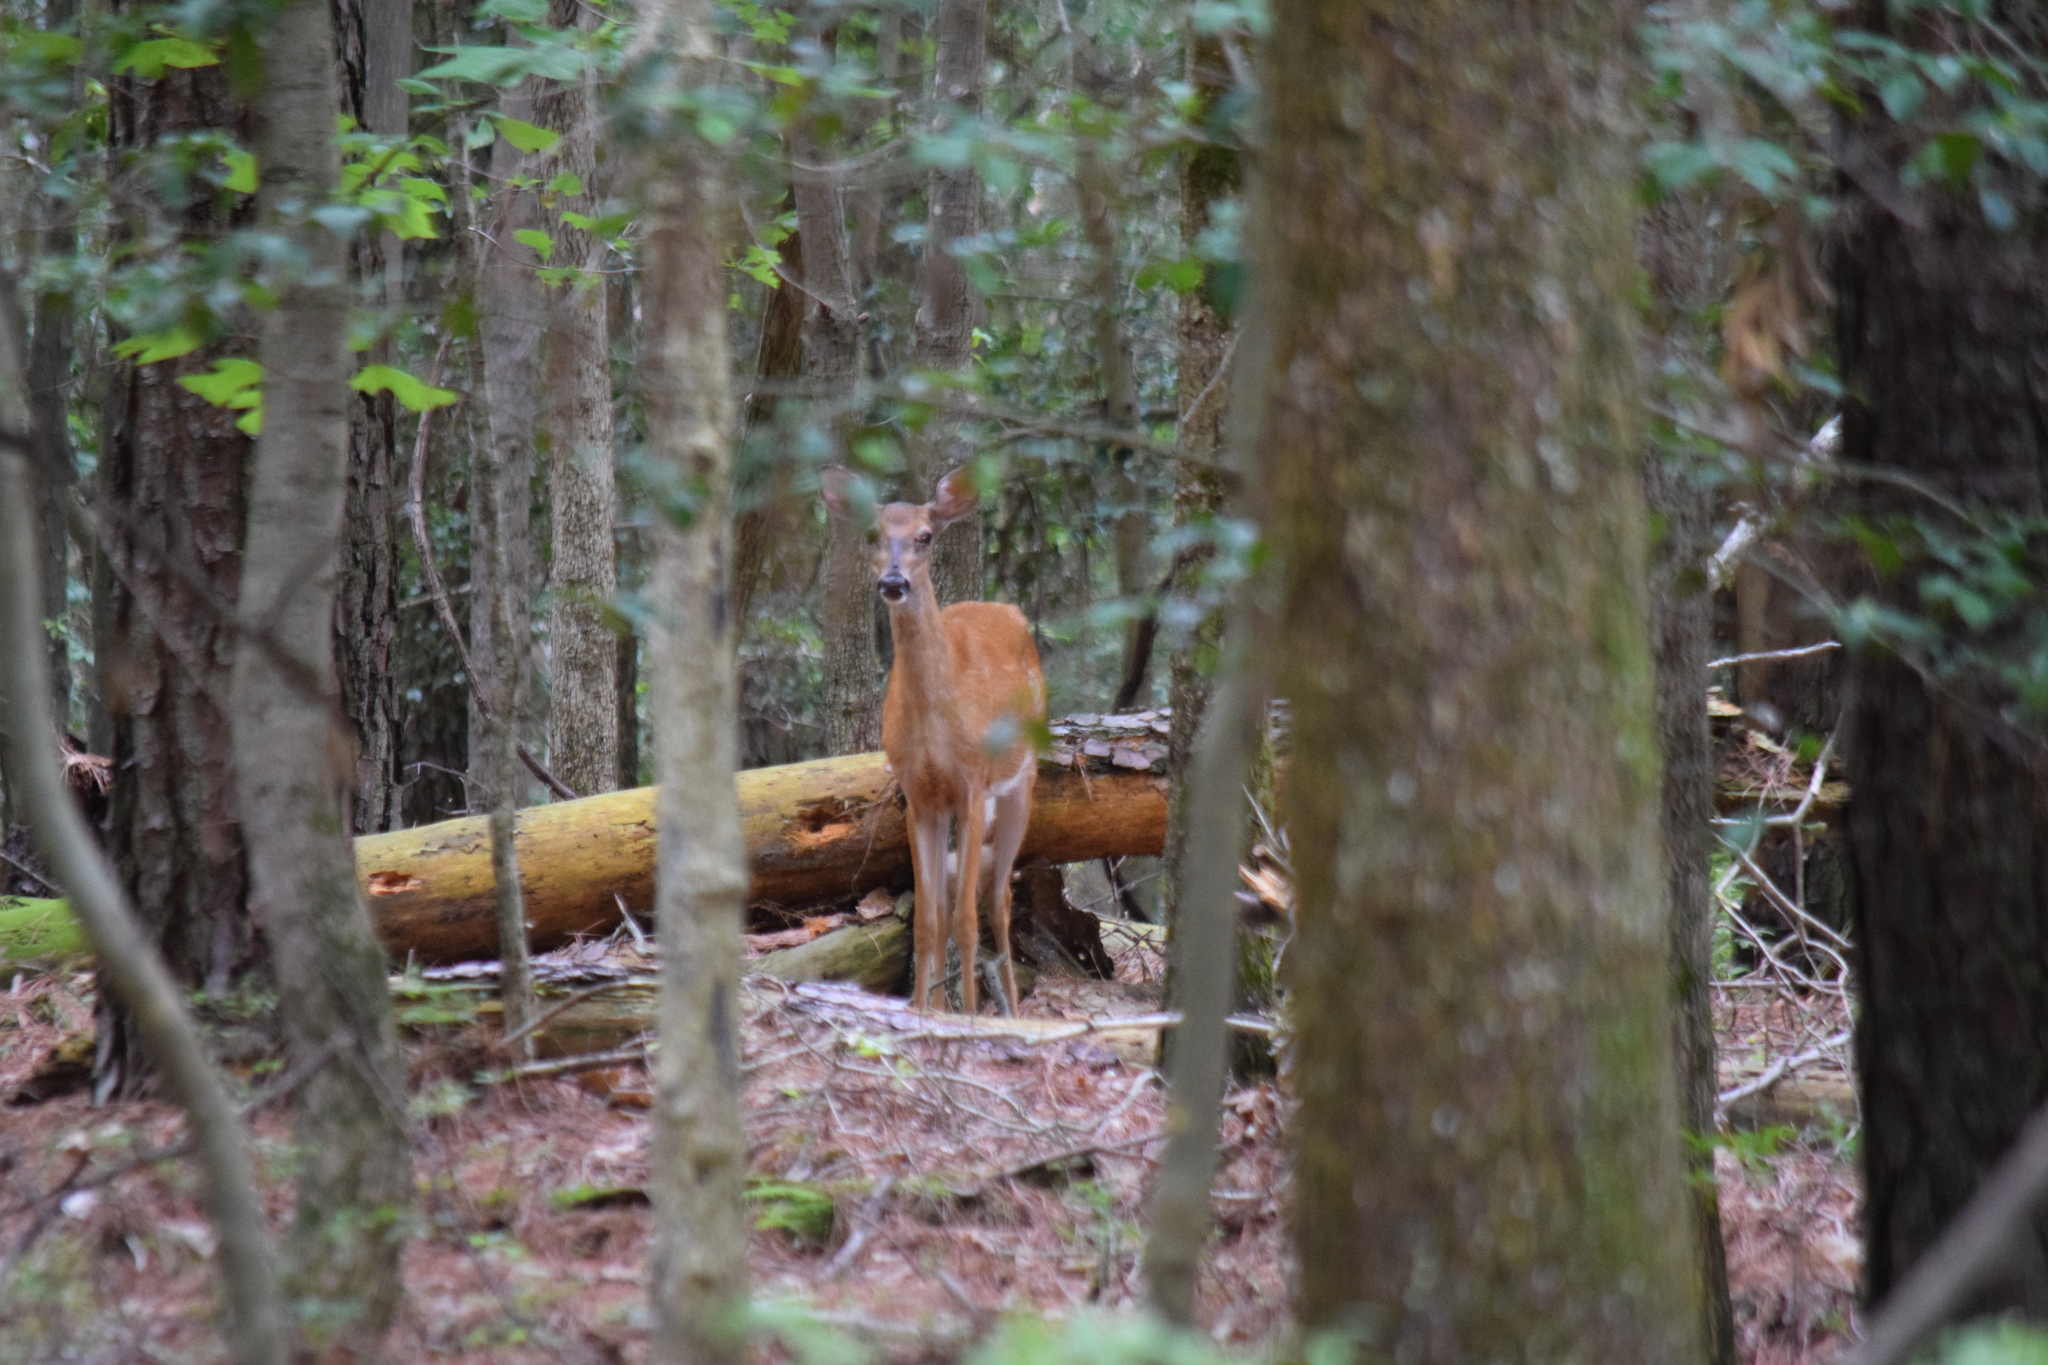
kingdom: Animalia
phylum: Chordata
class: Mammalia
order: Artiodactyla
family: Cervidae
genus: Odocoileus
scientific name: Odocoileus virginianus
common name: White-tailed deer
